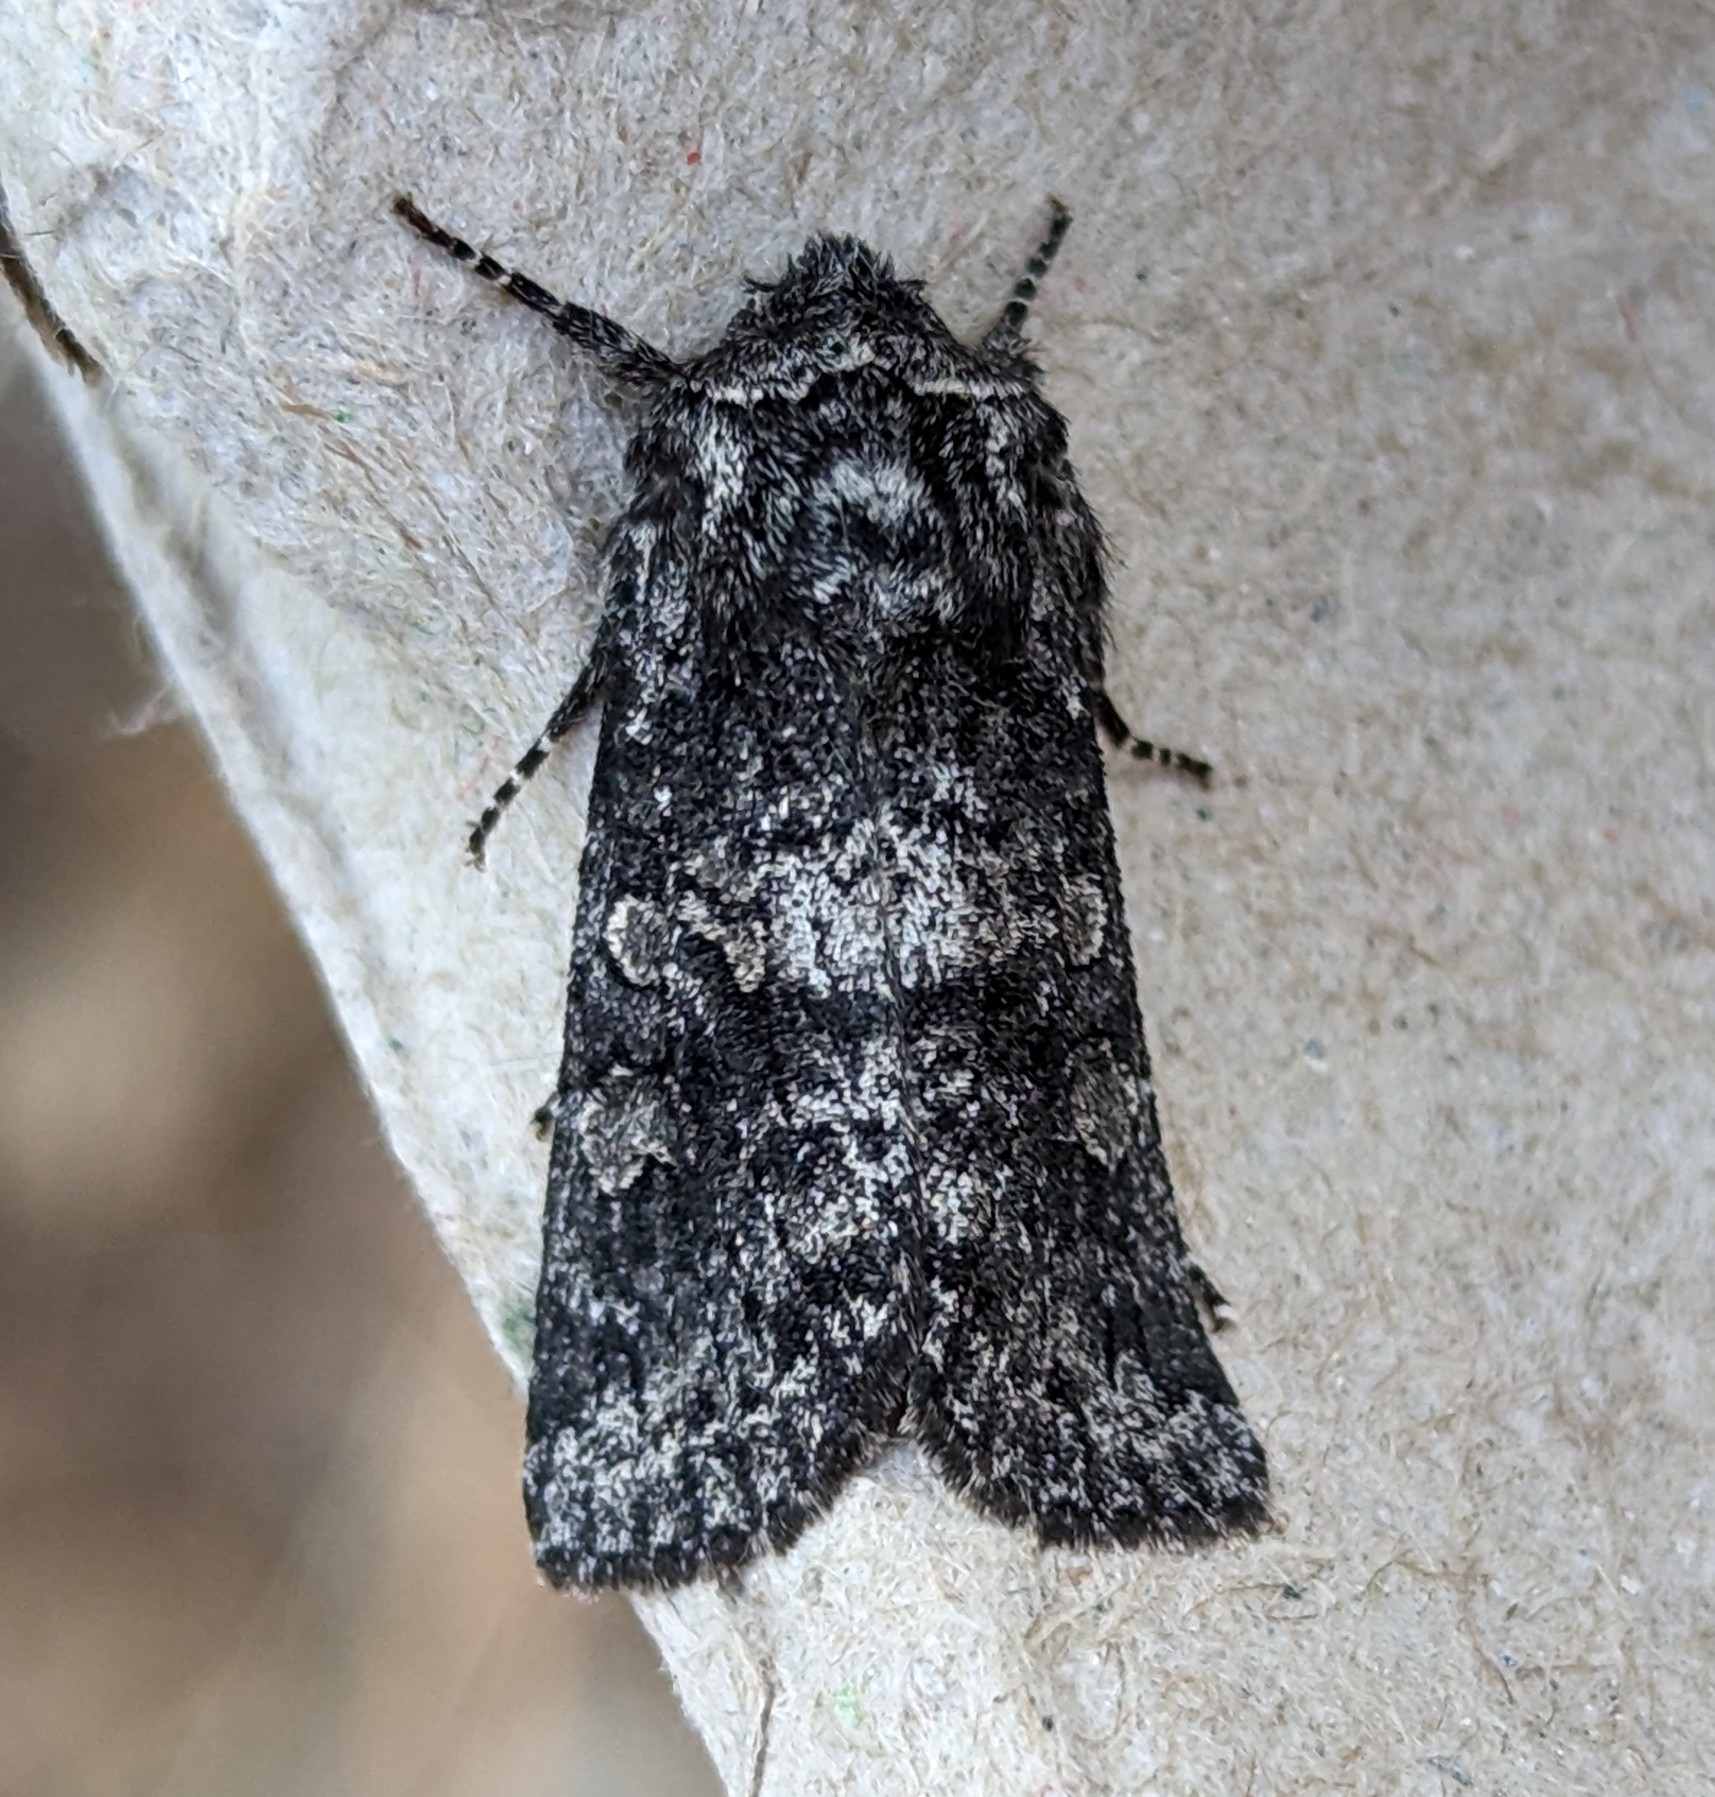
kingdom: Animalia
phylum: Arthropoda
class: Insecta
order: Lepidoptera
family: Noctuidae
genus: Egira
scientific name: Egira dolosa
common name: Lined black aspen cat.
